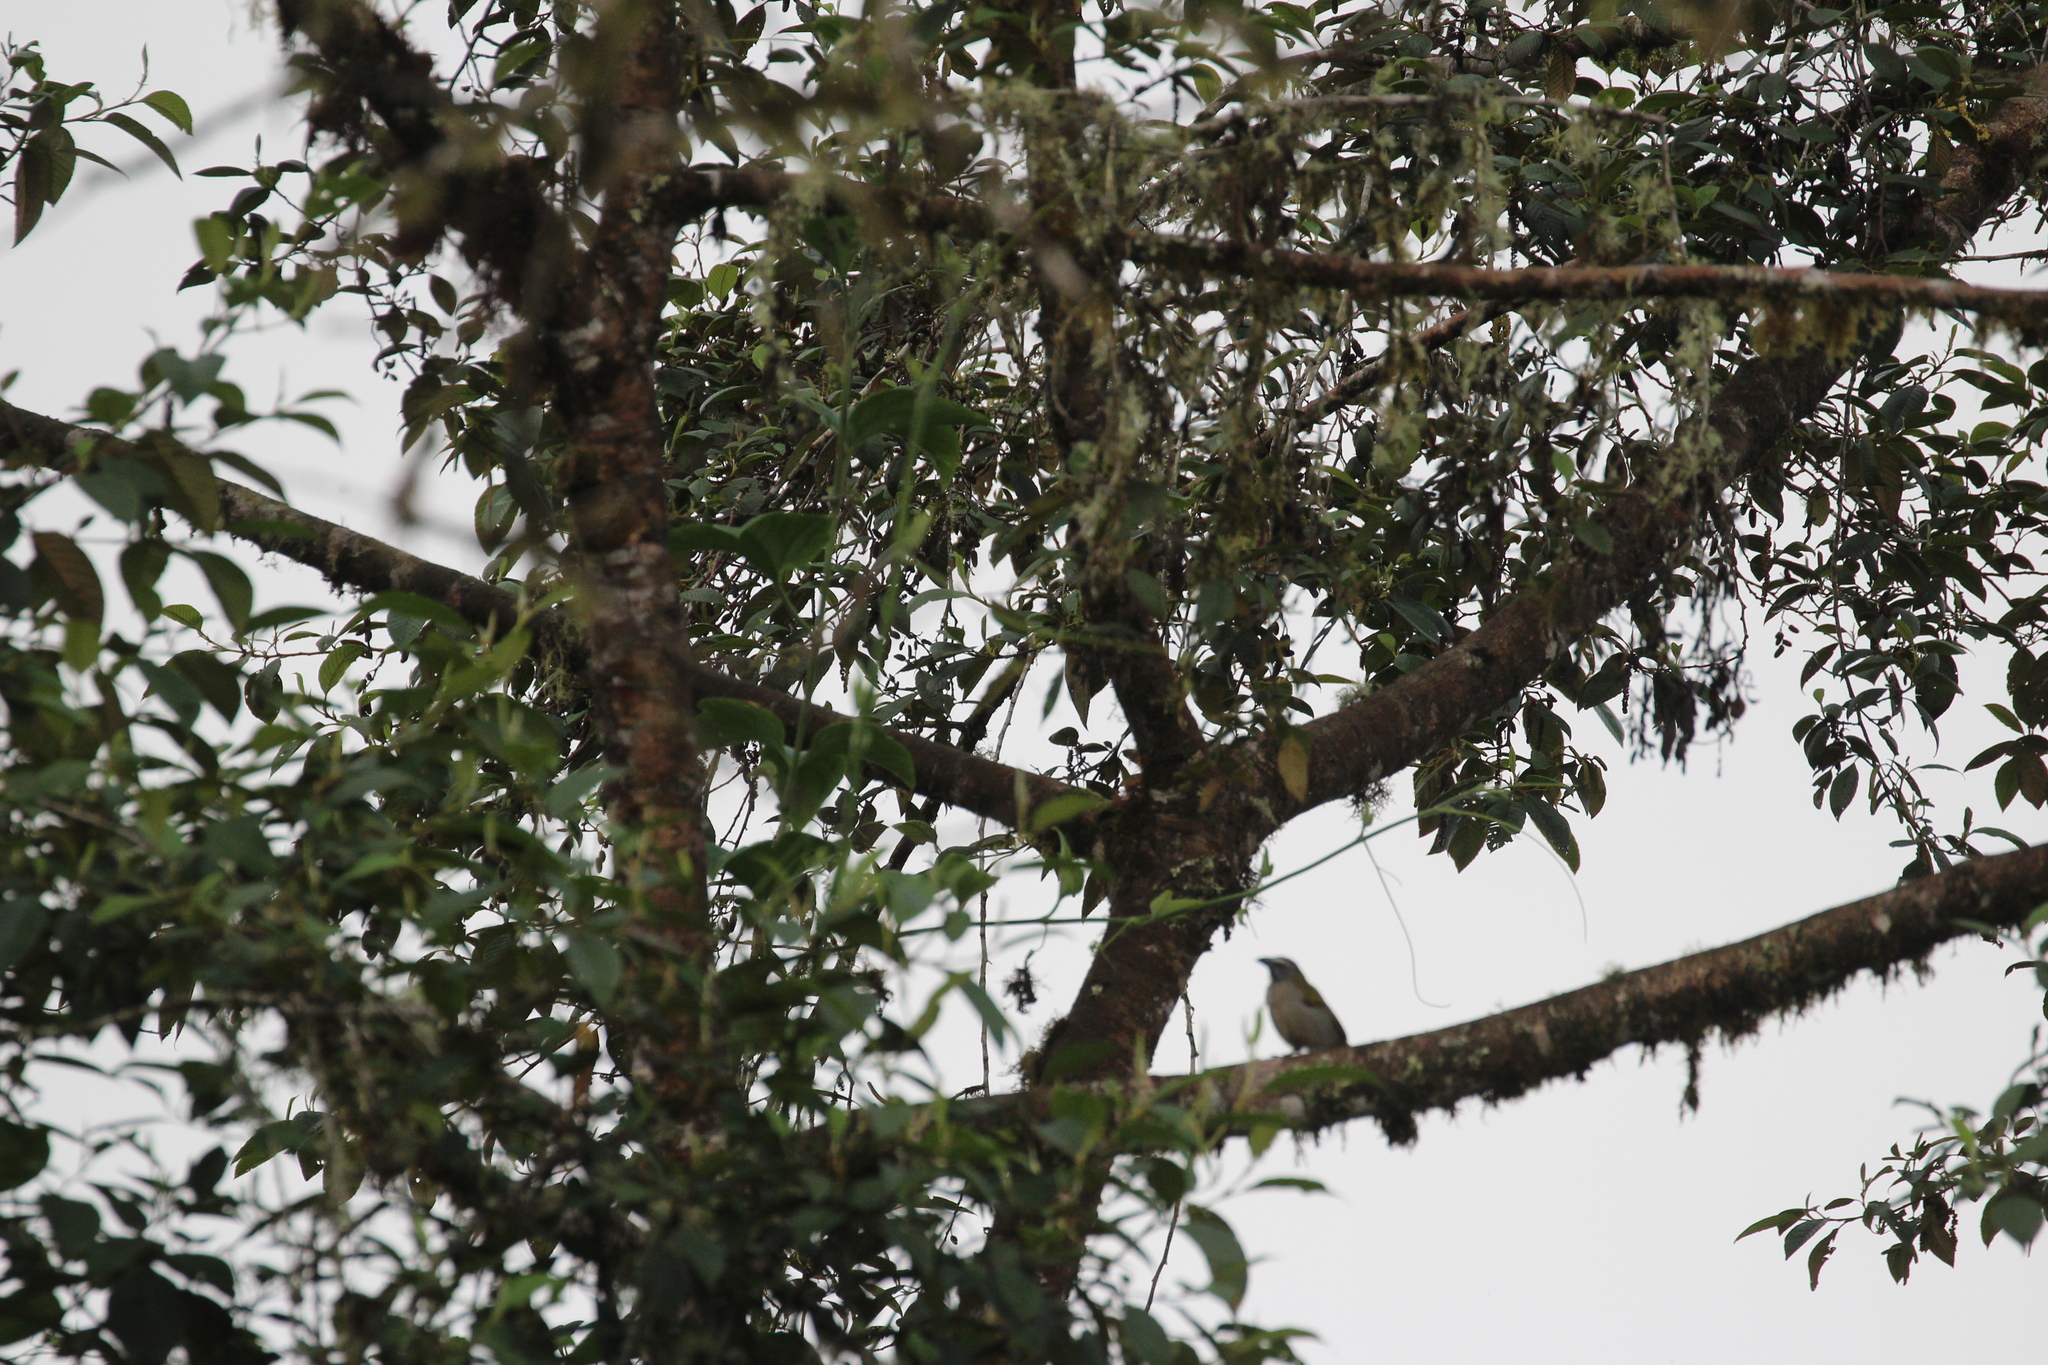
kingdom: Animalia
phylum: Chordata
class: Aves
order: Passeriformes
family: Thraupidae
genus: Saltator
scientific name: Saltator maximus
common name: Buff-throated saltator
